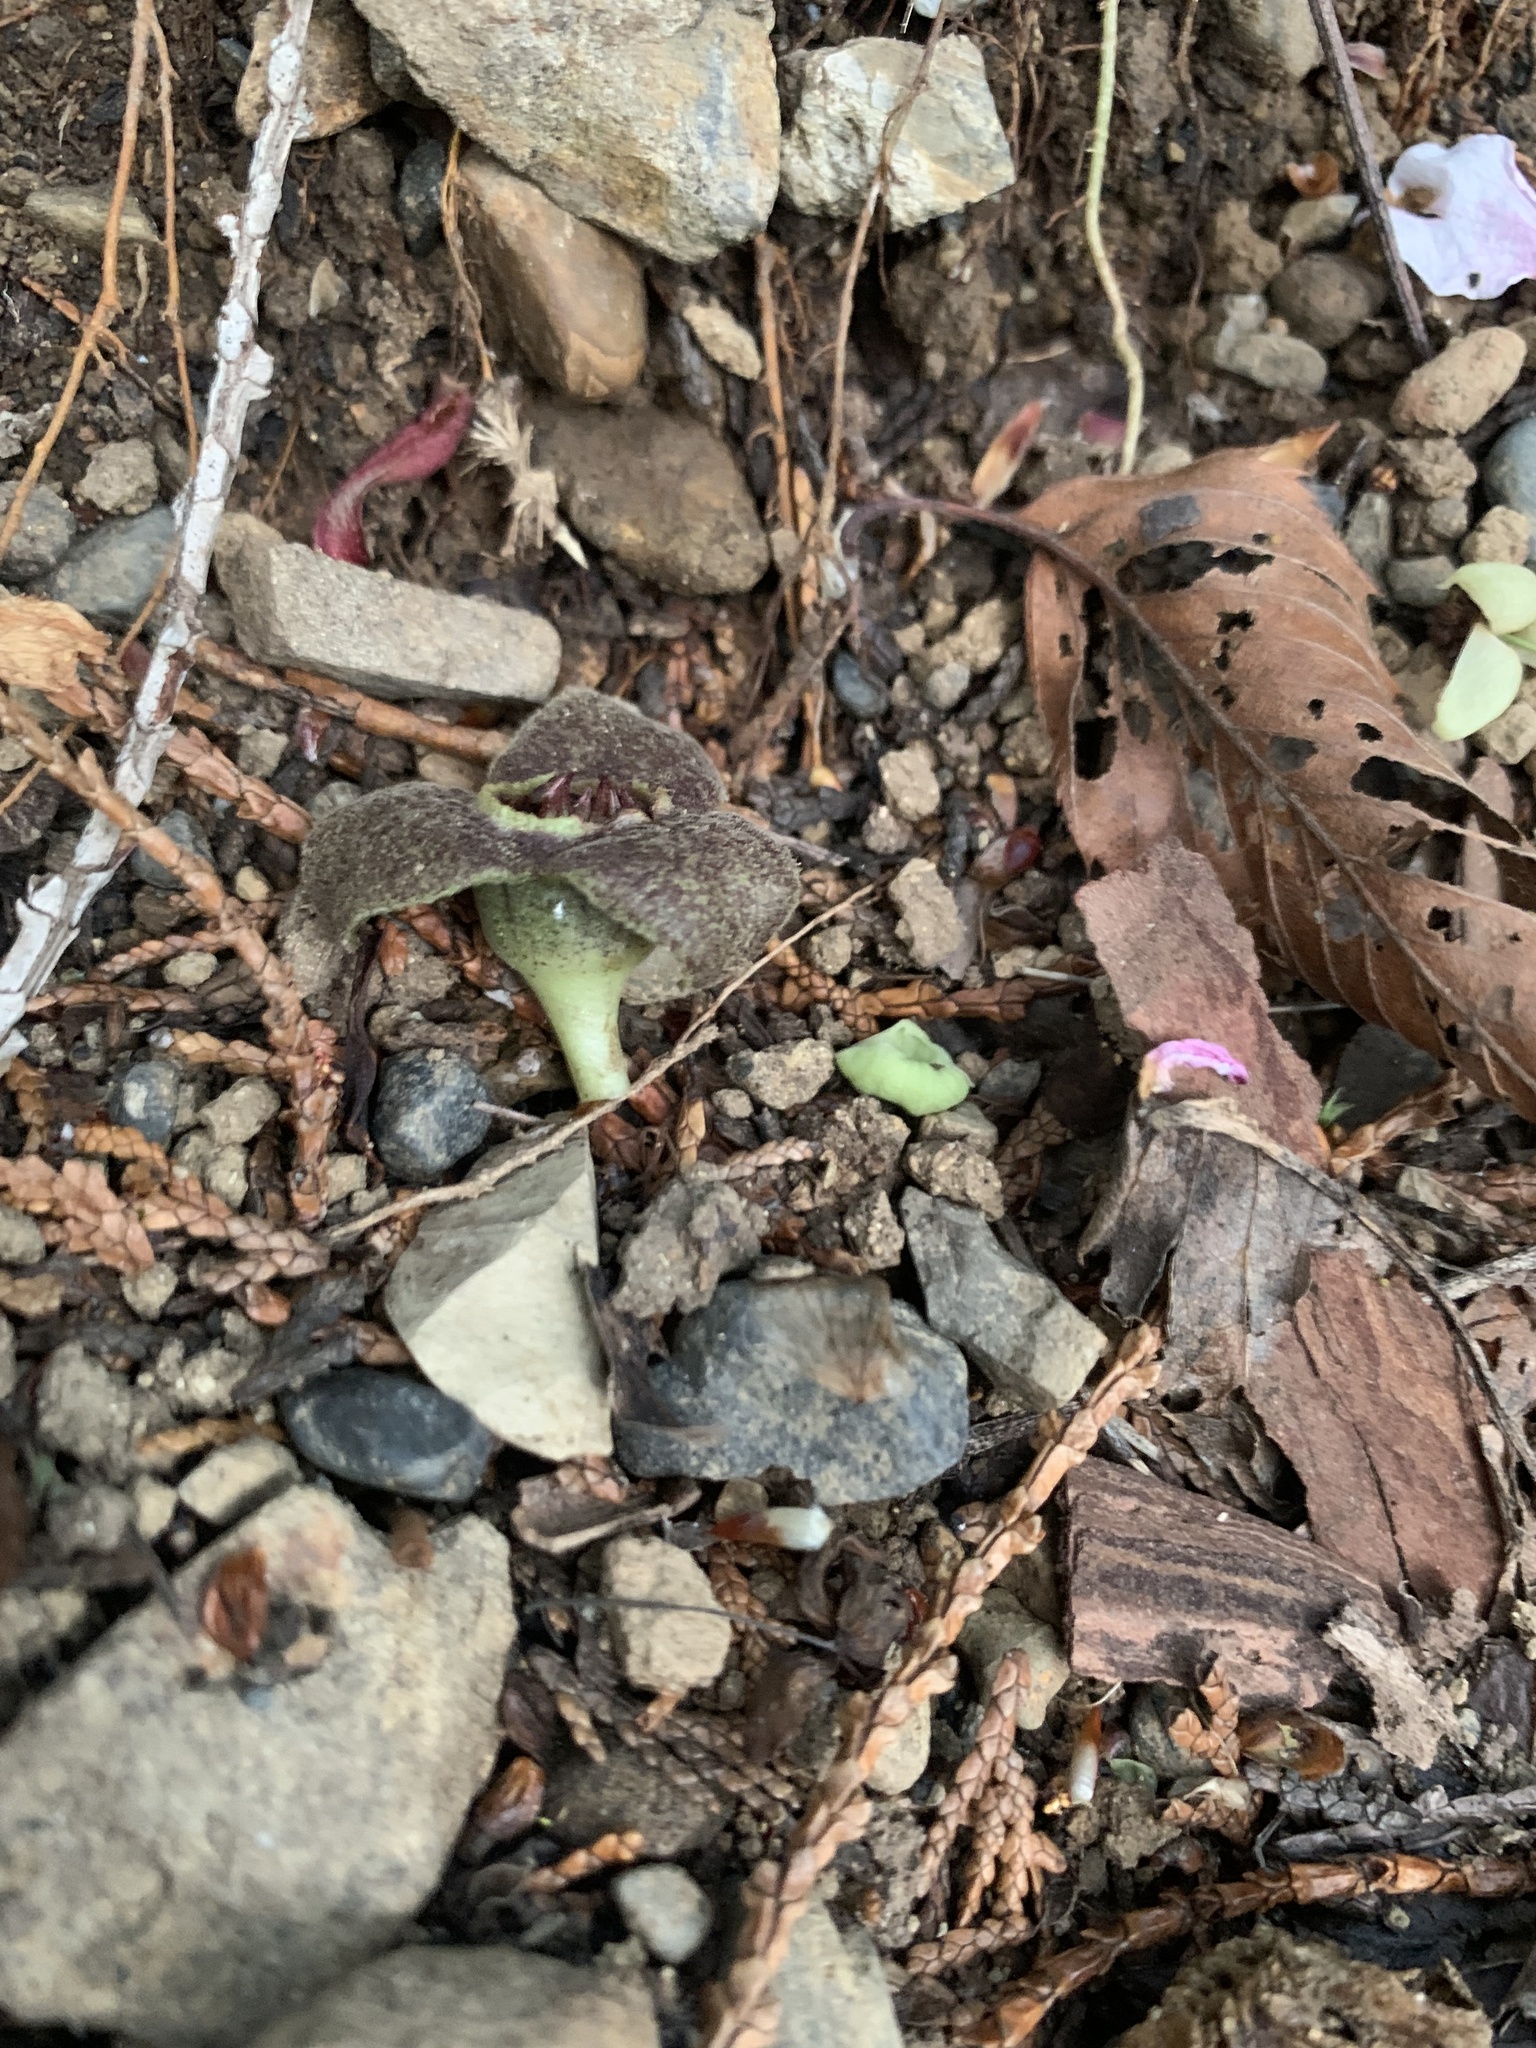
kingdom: Plantae
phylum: Tracheophyta
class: Magnoliopsida
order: Piperales
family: Aristolochiaceae
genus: Asarum
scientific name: Asarum rigescens
